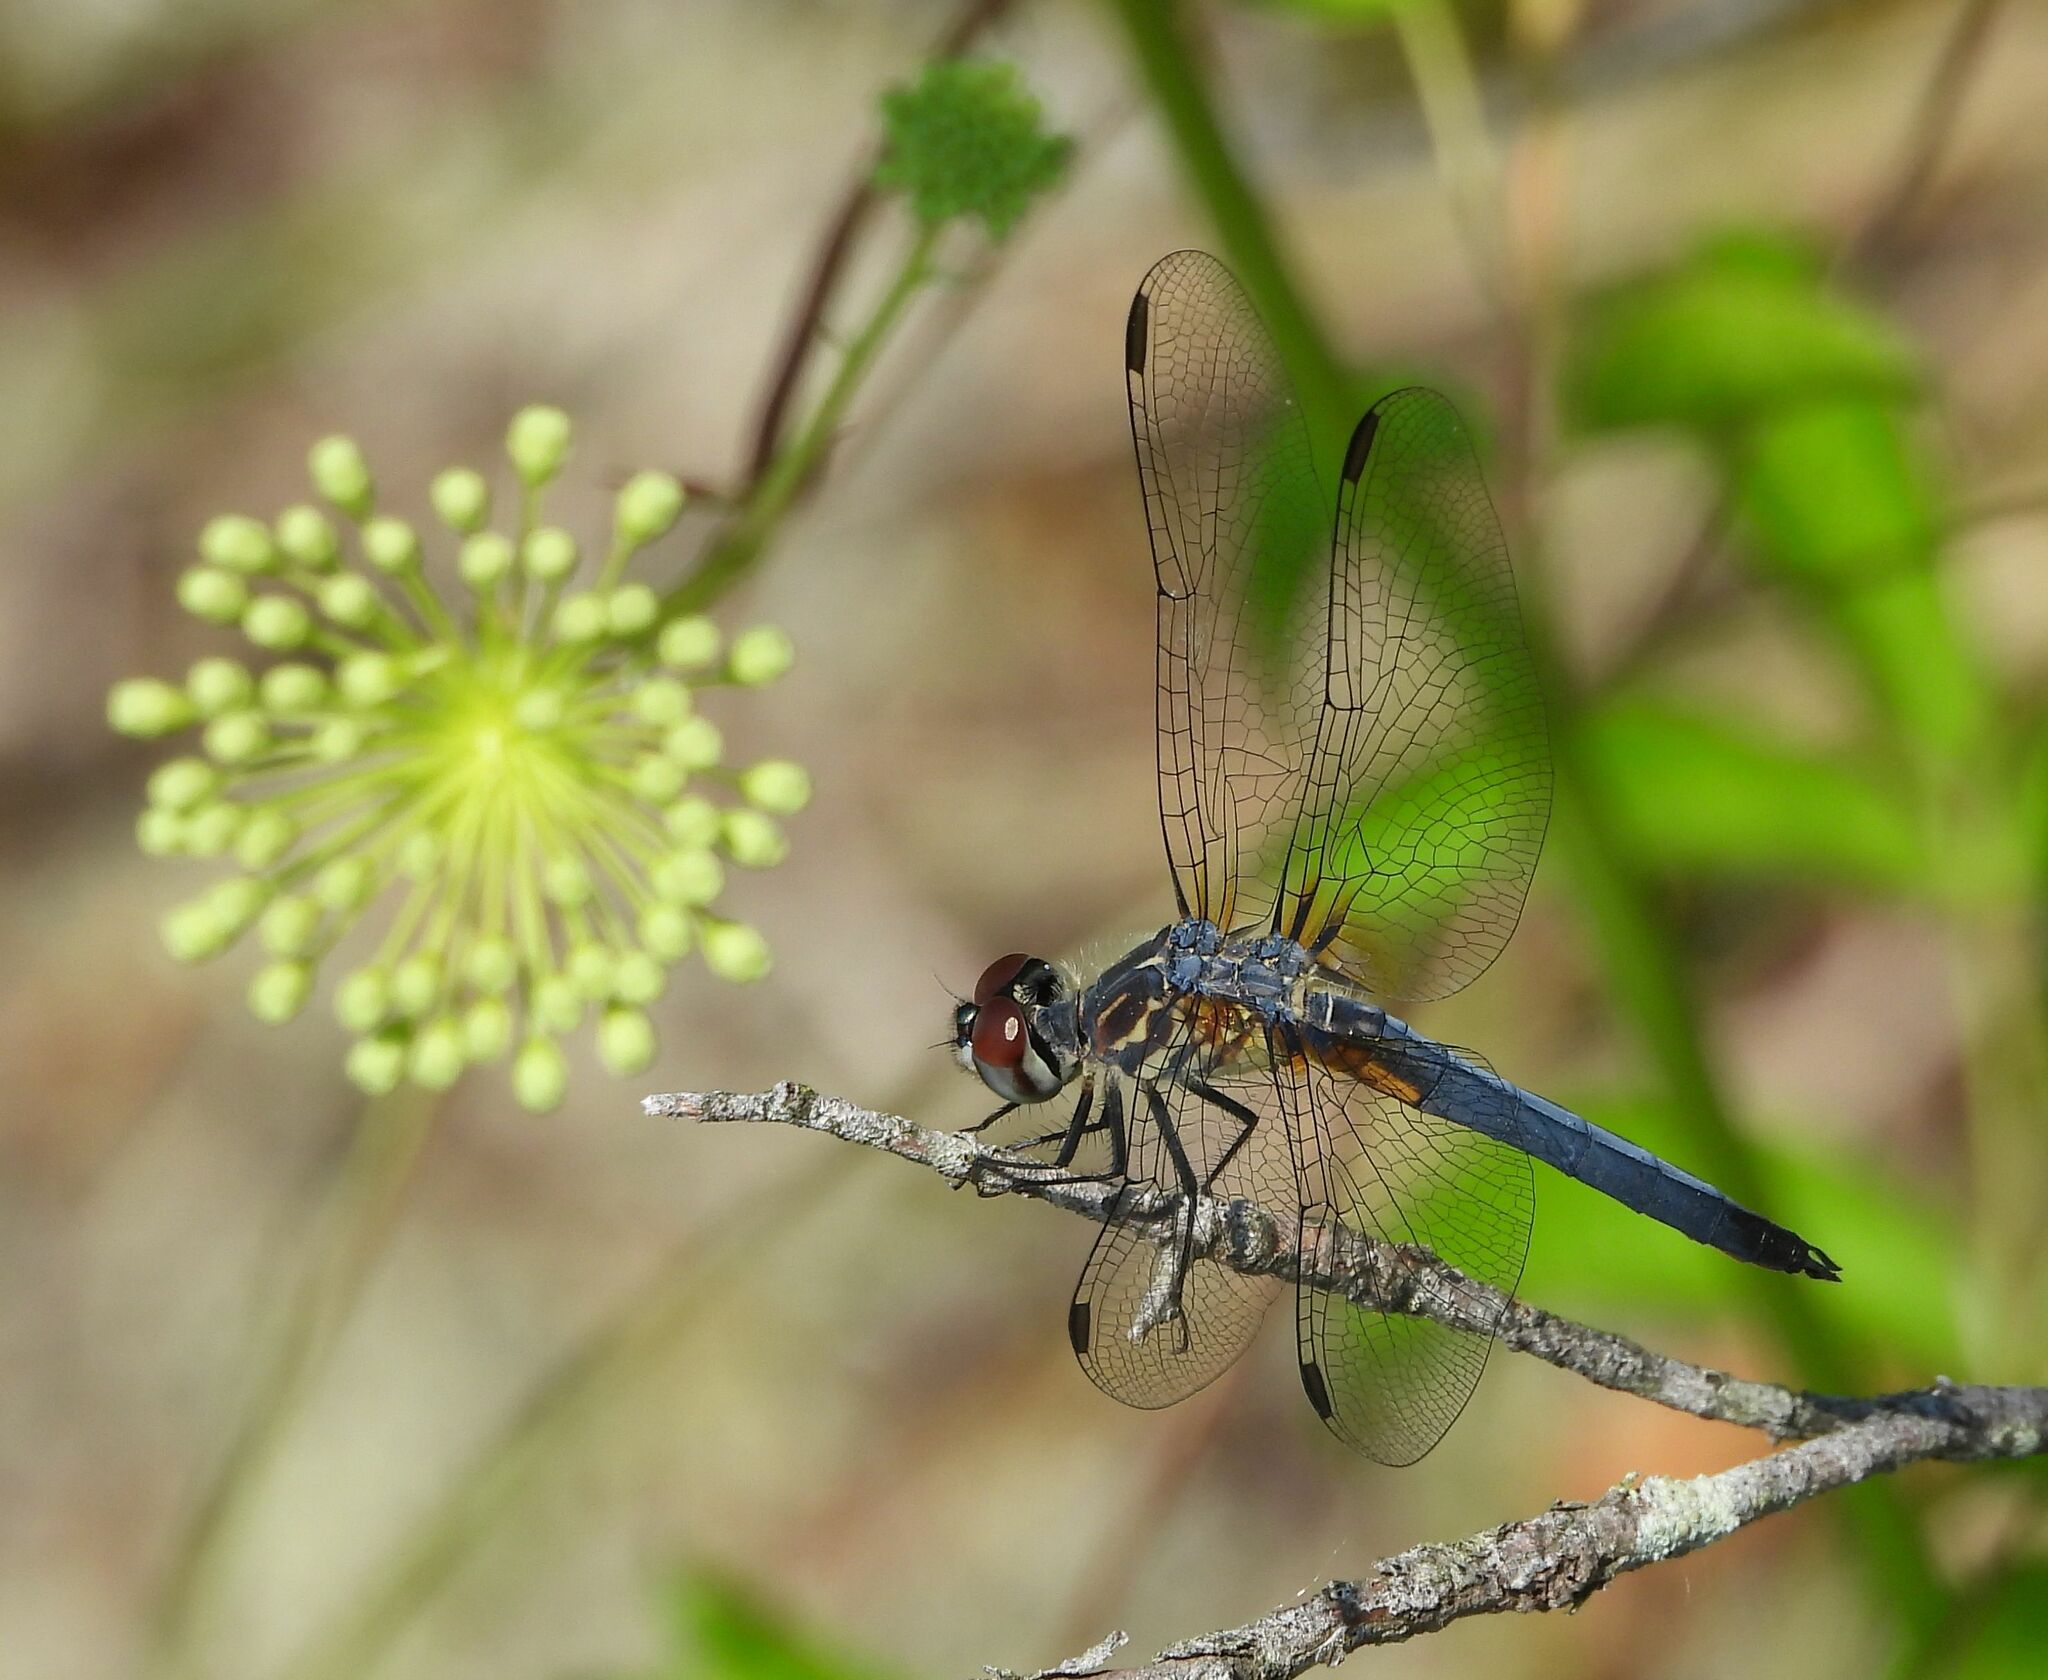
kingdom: Animalia
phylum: Arthropoda
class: Insecta
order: Odonata
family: Libellulidae
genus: Pachydiplax
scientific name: Pachydiplax longipennis
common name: Blue dasher
